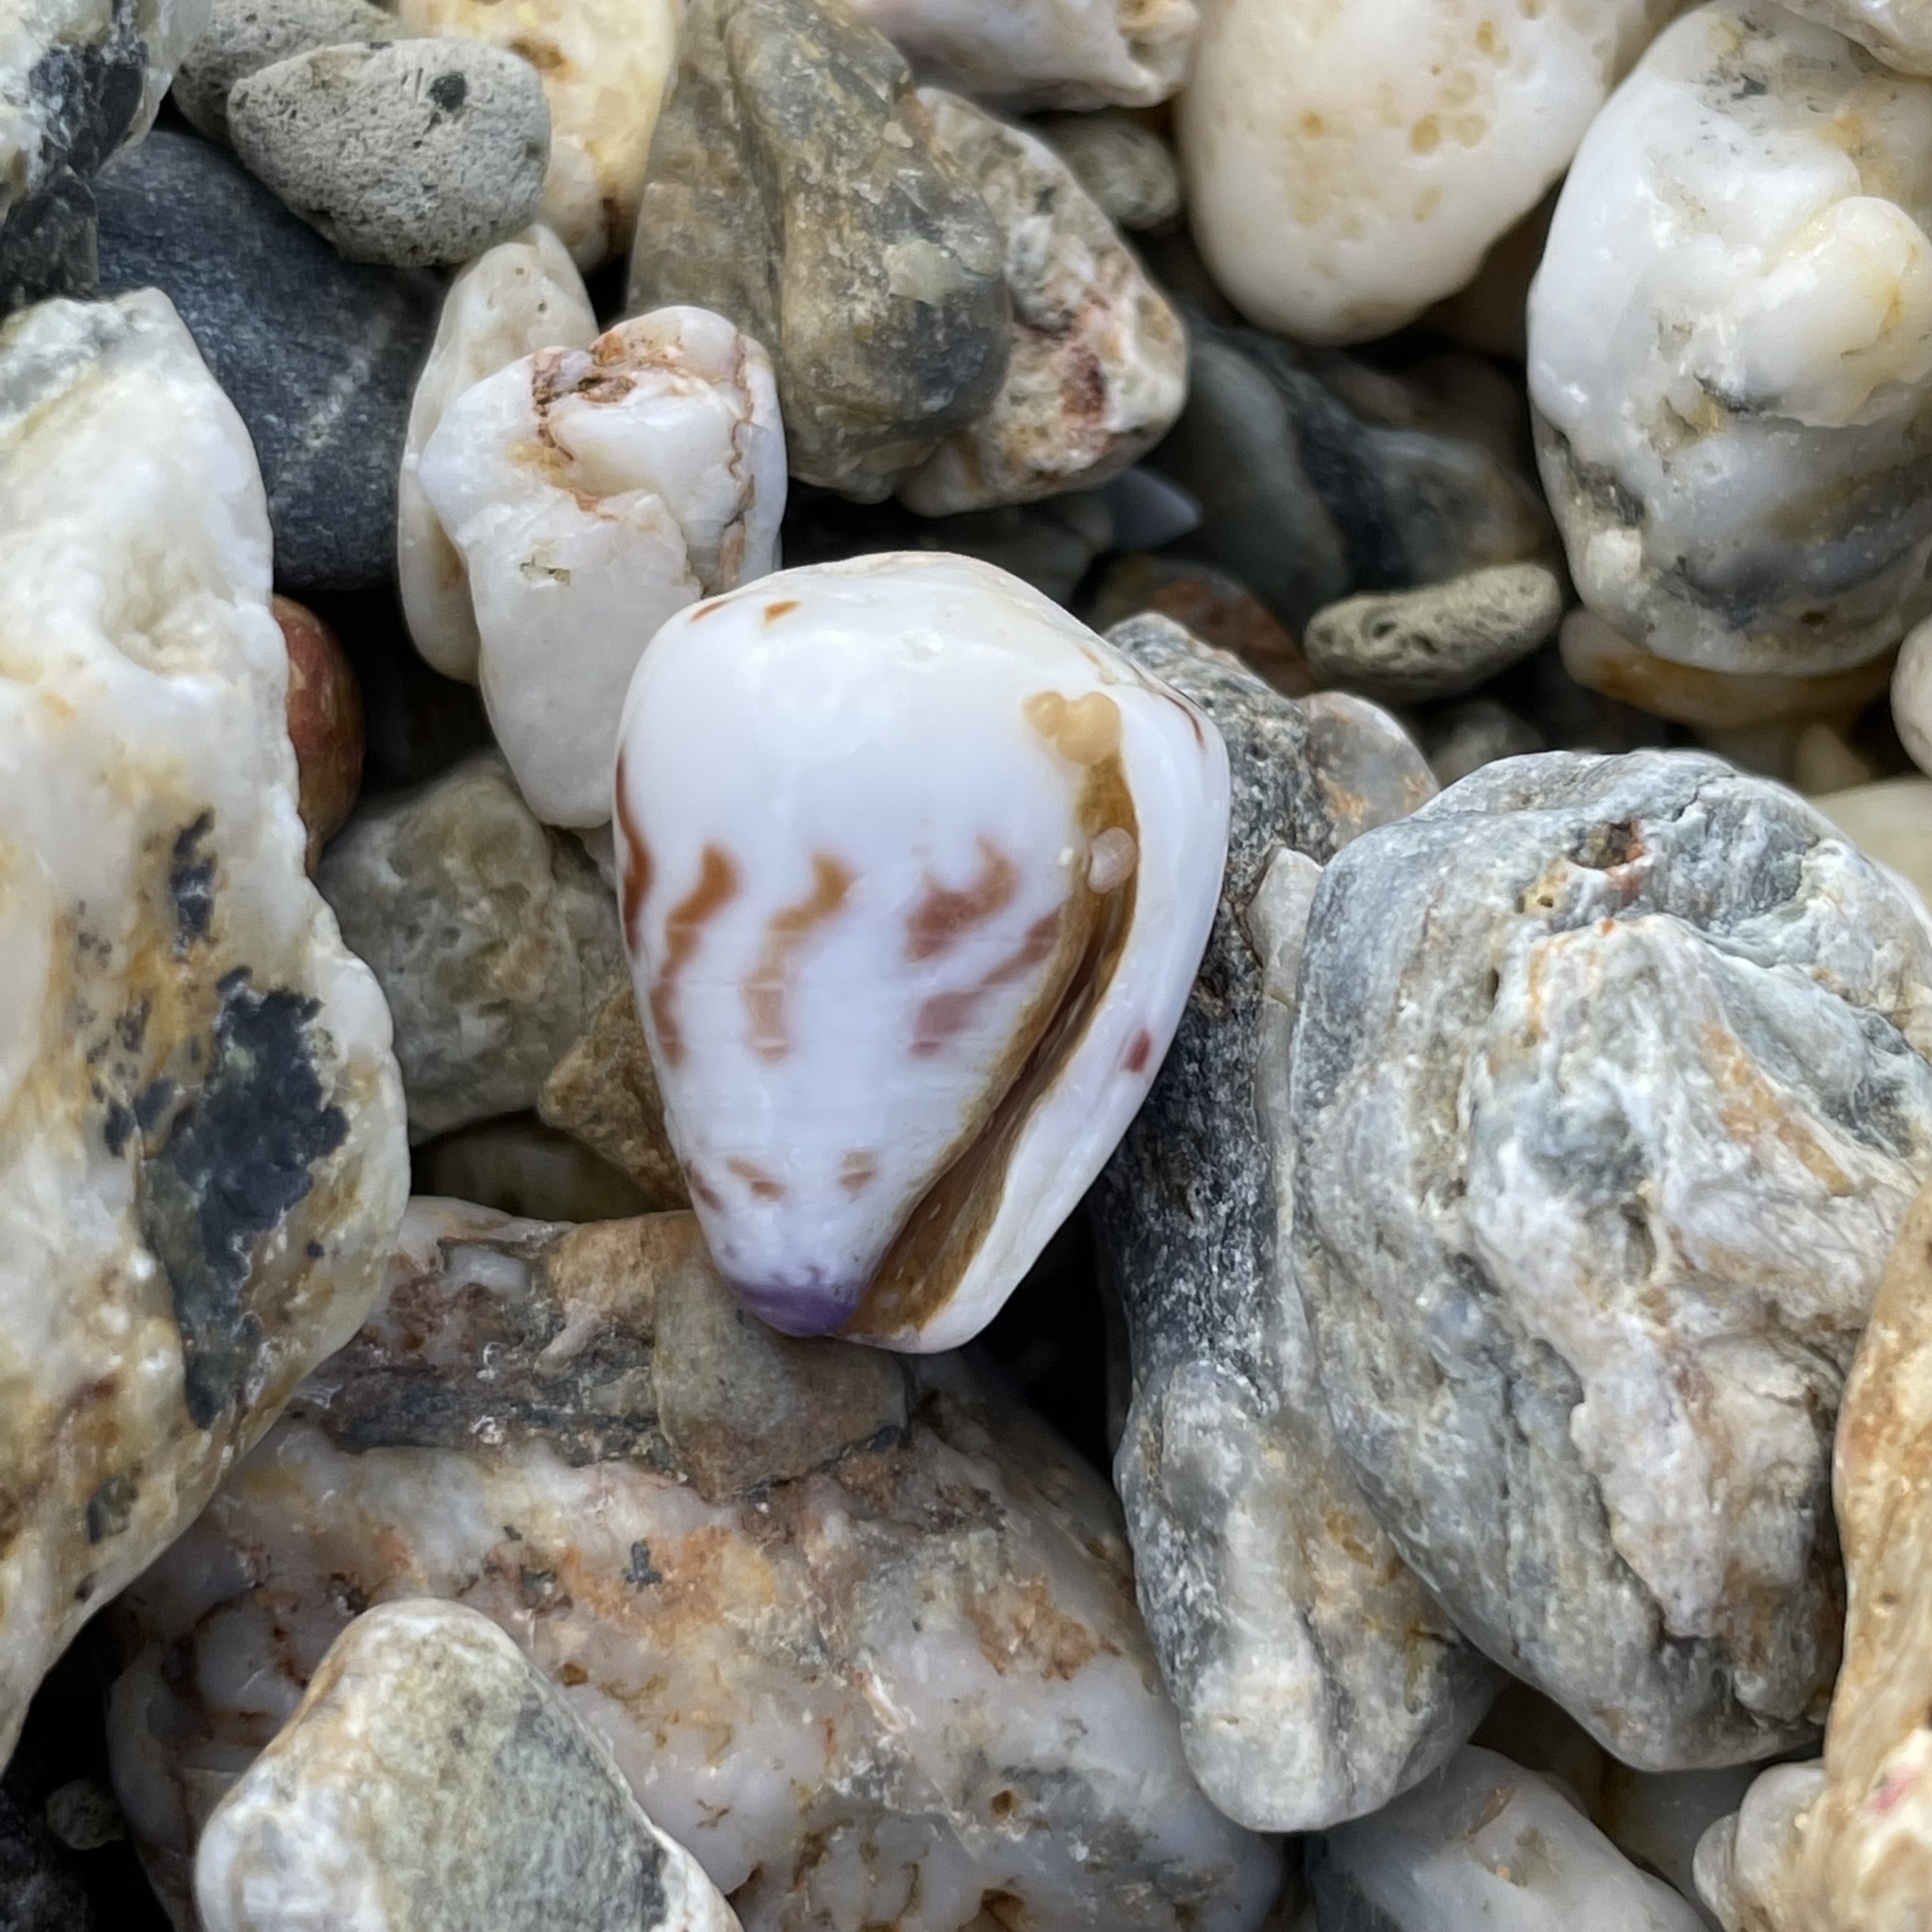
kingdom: Animalia
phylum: Mollusca
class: Gastropoda
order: Neogastropoda
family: Conidae
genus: Conus
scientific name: Conus sponsalis
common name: Sponsal cone
